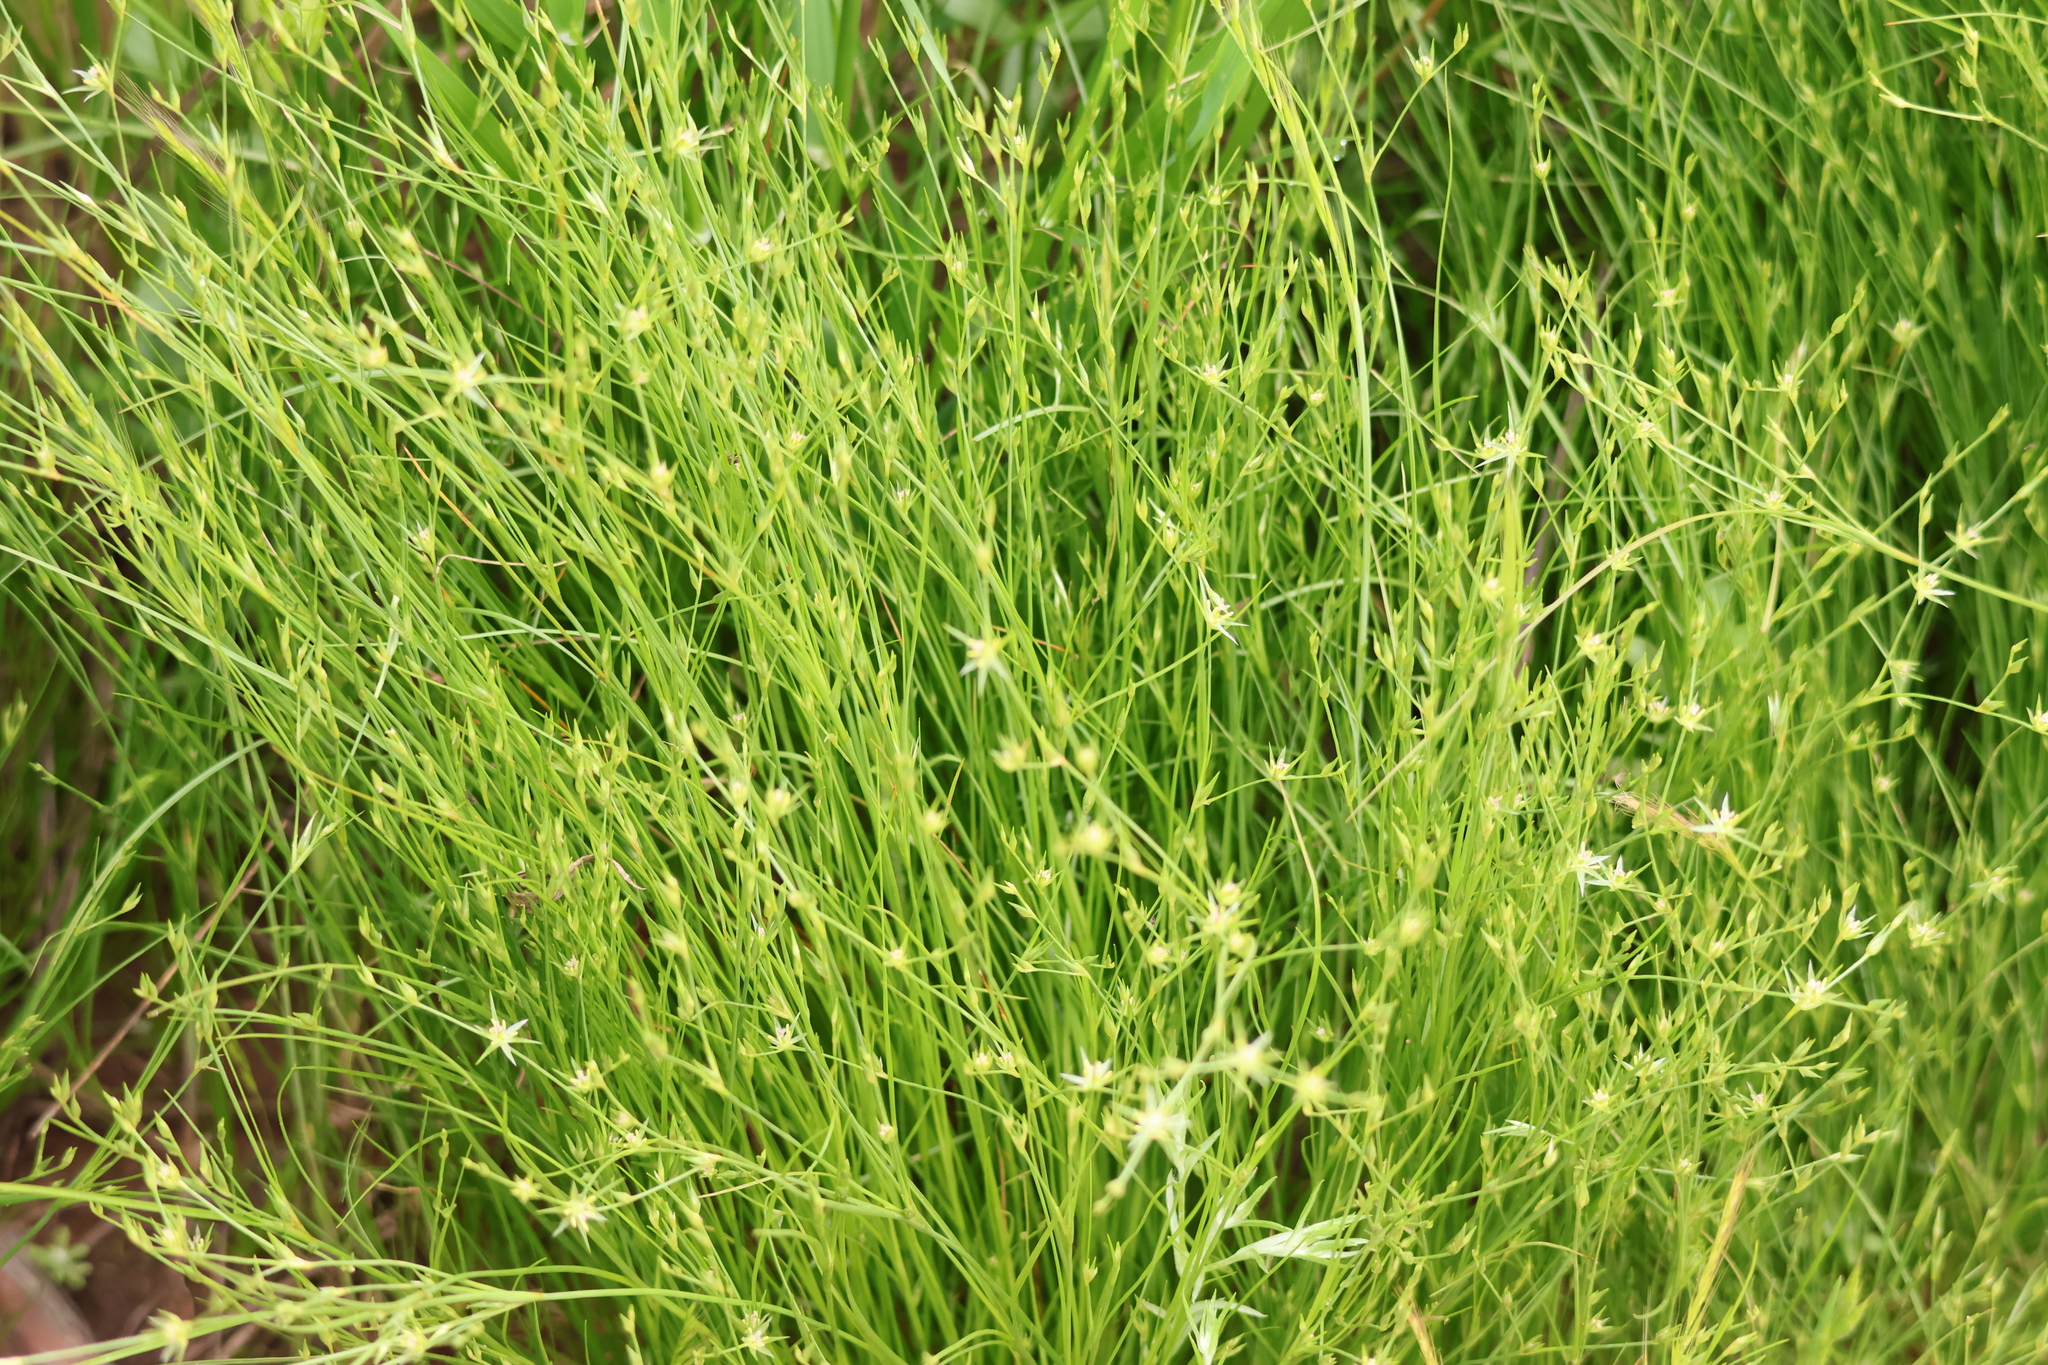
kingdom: Plantae
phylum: Tracheophyta
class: Liliopsida
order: Poales
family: Juncaceae
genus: Juncus
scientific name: Juncus bufonius
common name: Toad rush
